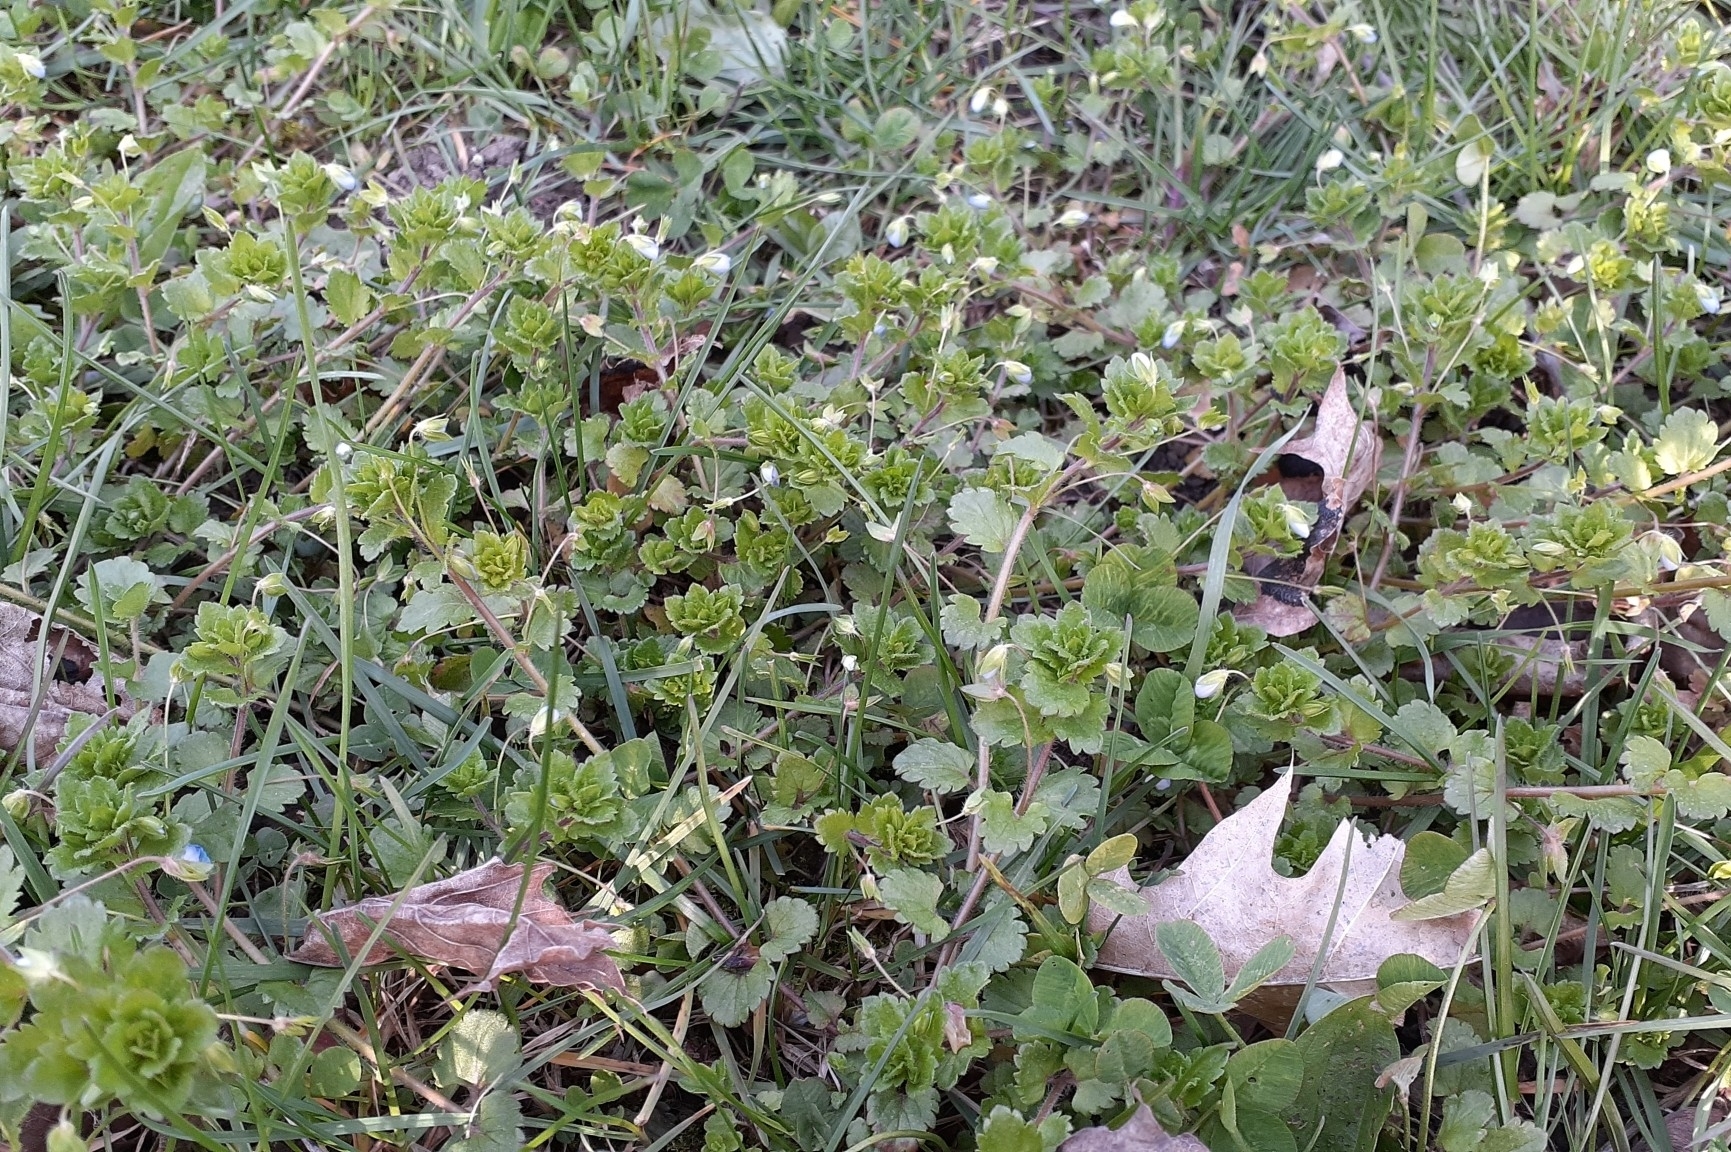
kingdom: Plantae
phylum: Tracheophyta
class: Magnoliopsida
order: Lamiales
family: Plantaginaceae
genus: Veronica
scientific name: Veronica persica
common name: Common field-speedwell
